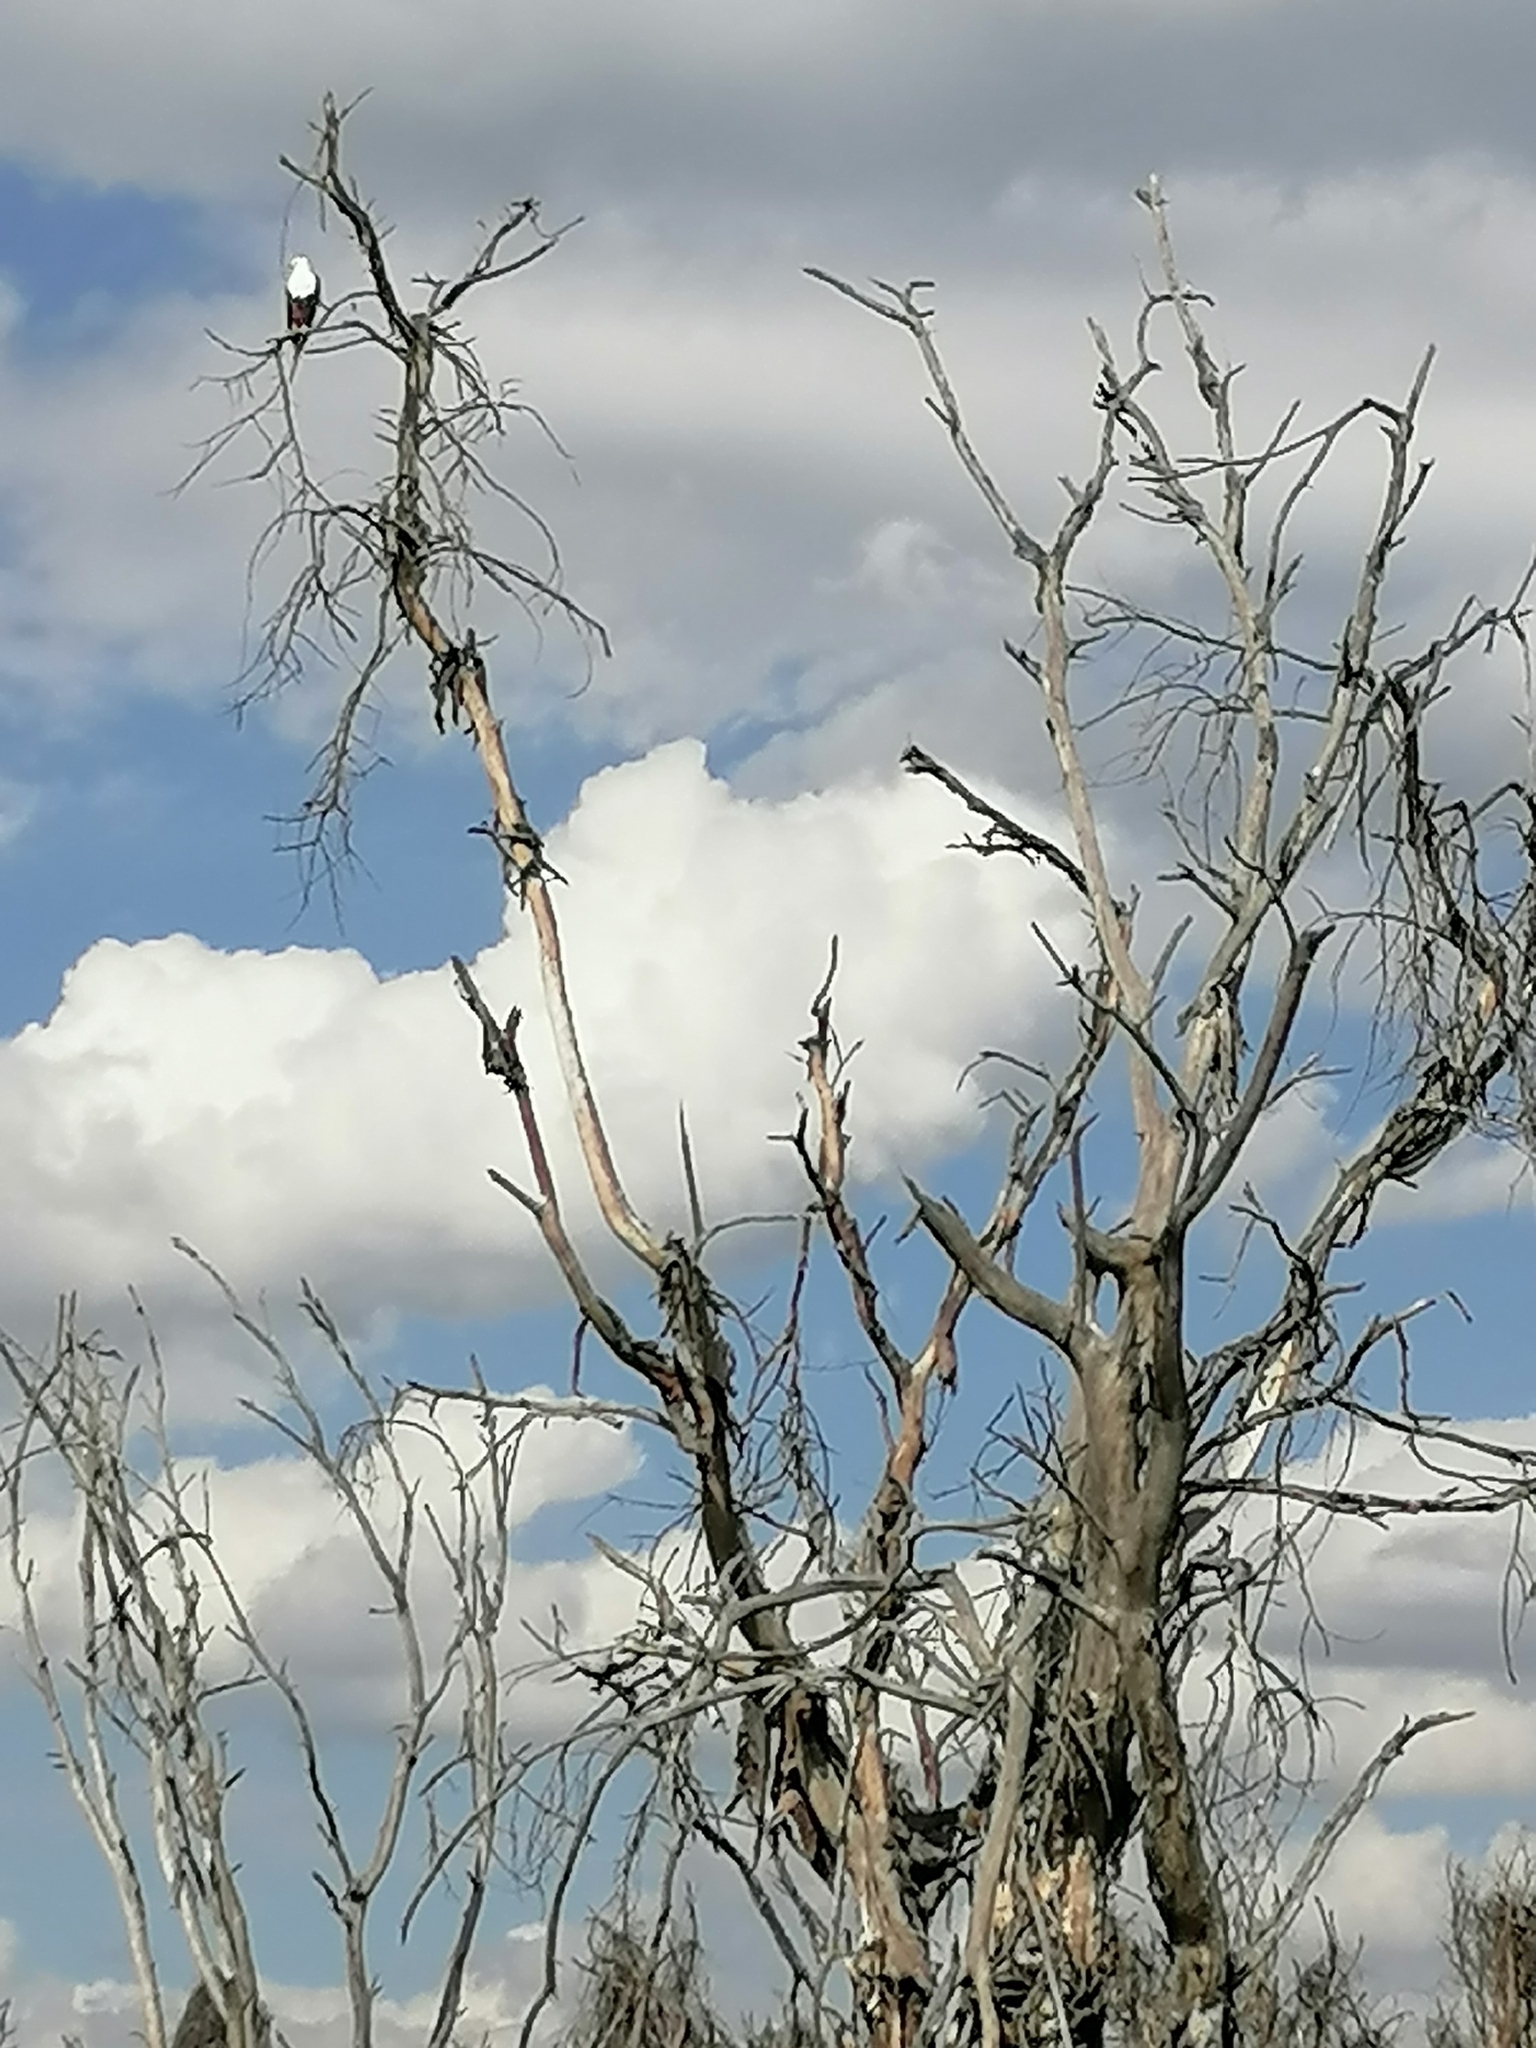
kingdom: Animalia
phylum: Chordata
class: Aves
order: Accipitriformes
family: Accipitridae
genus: Haliaeetus
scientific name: Haliaeetus vocifer
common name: African fish eagle
